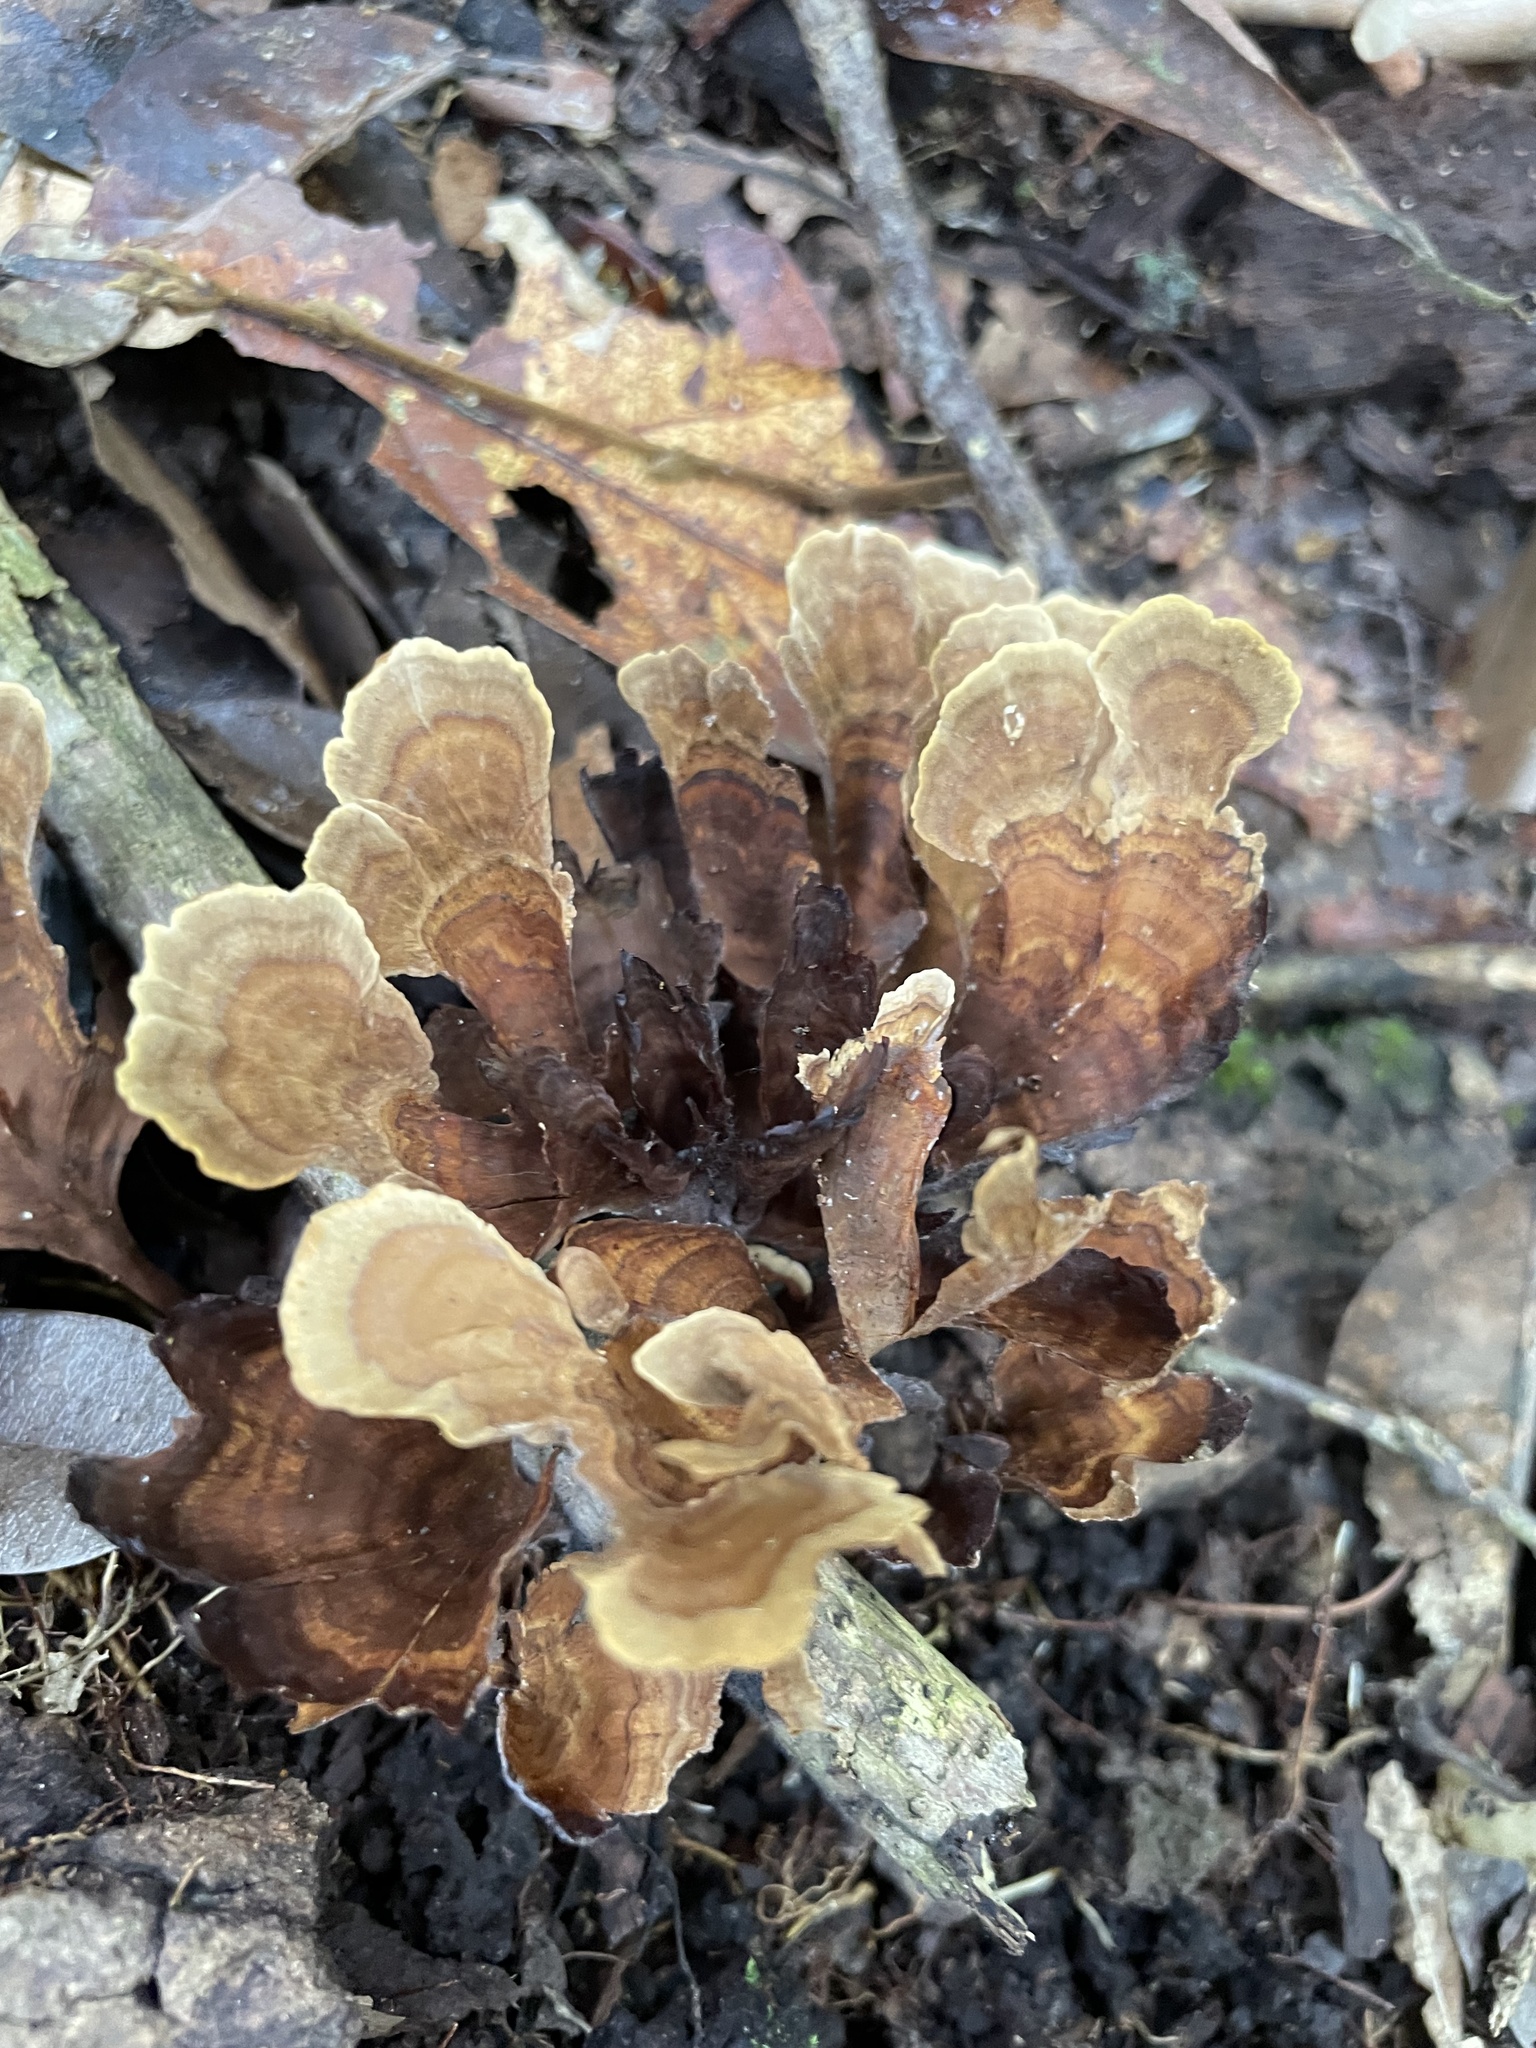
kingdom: Fungi
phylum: Basidiomycota
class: Agaricomycetes
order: Hymenochaetales
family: Hymenochaetaceae
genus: Hymenochaete
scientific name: Hymenochaete damicornis
